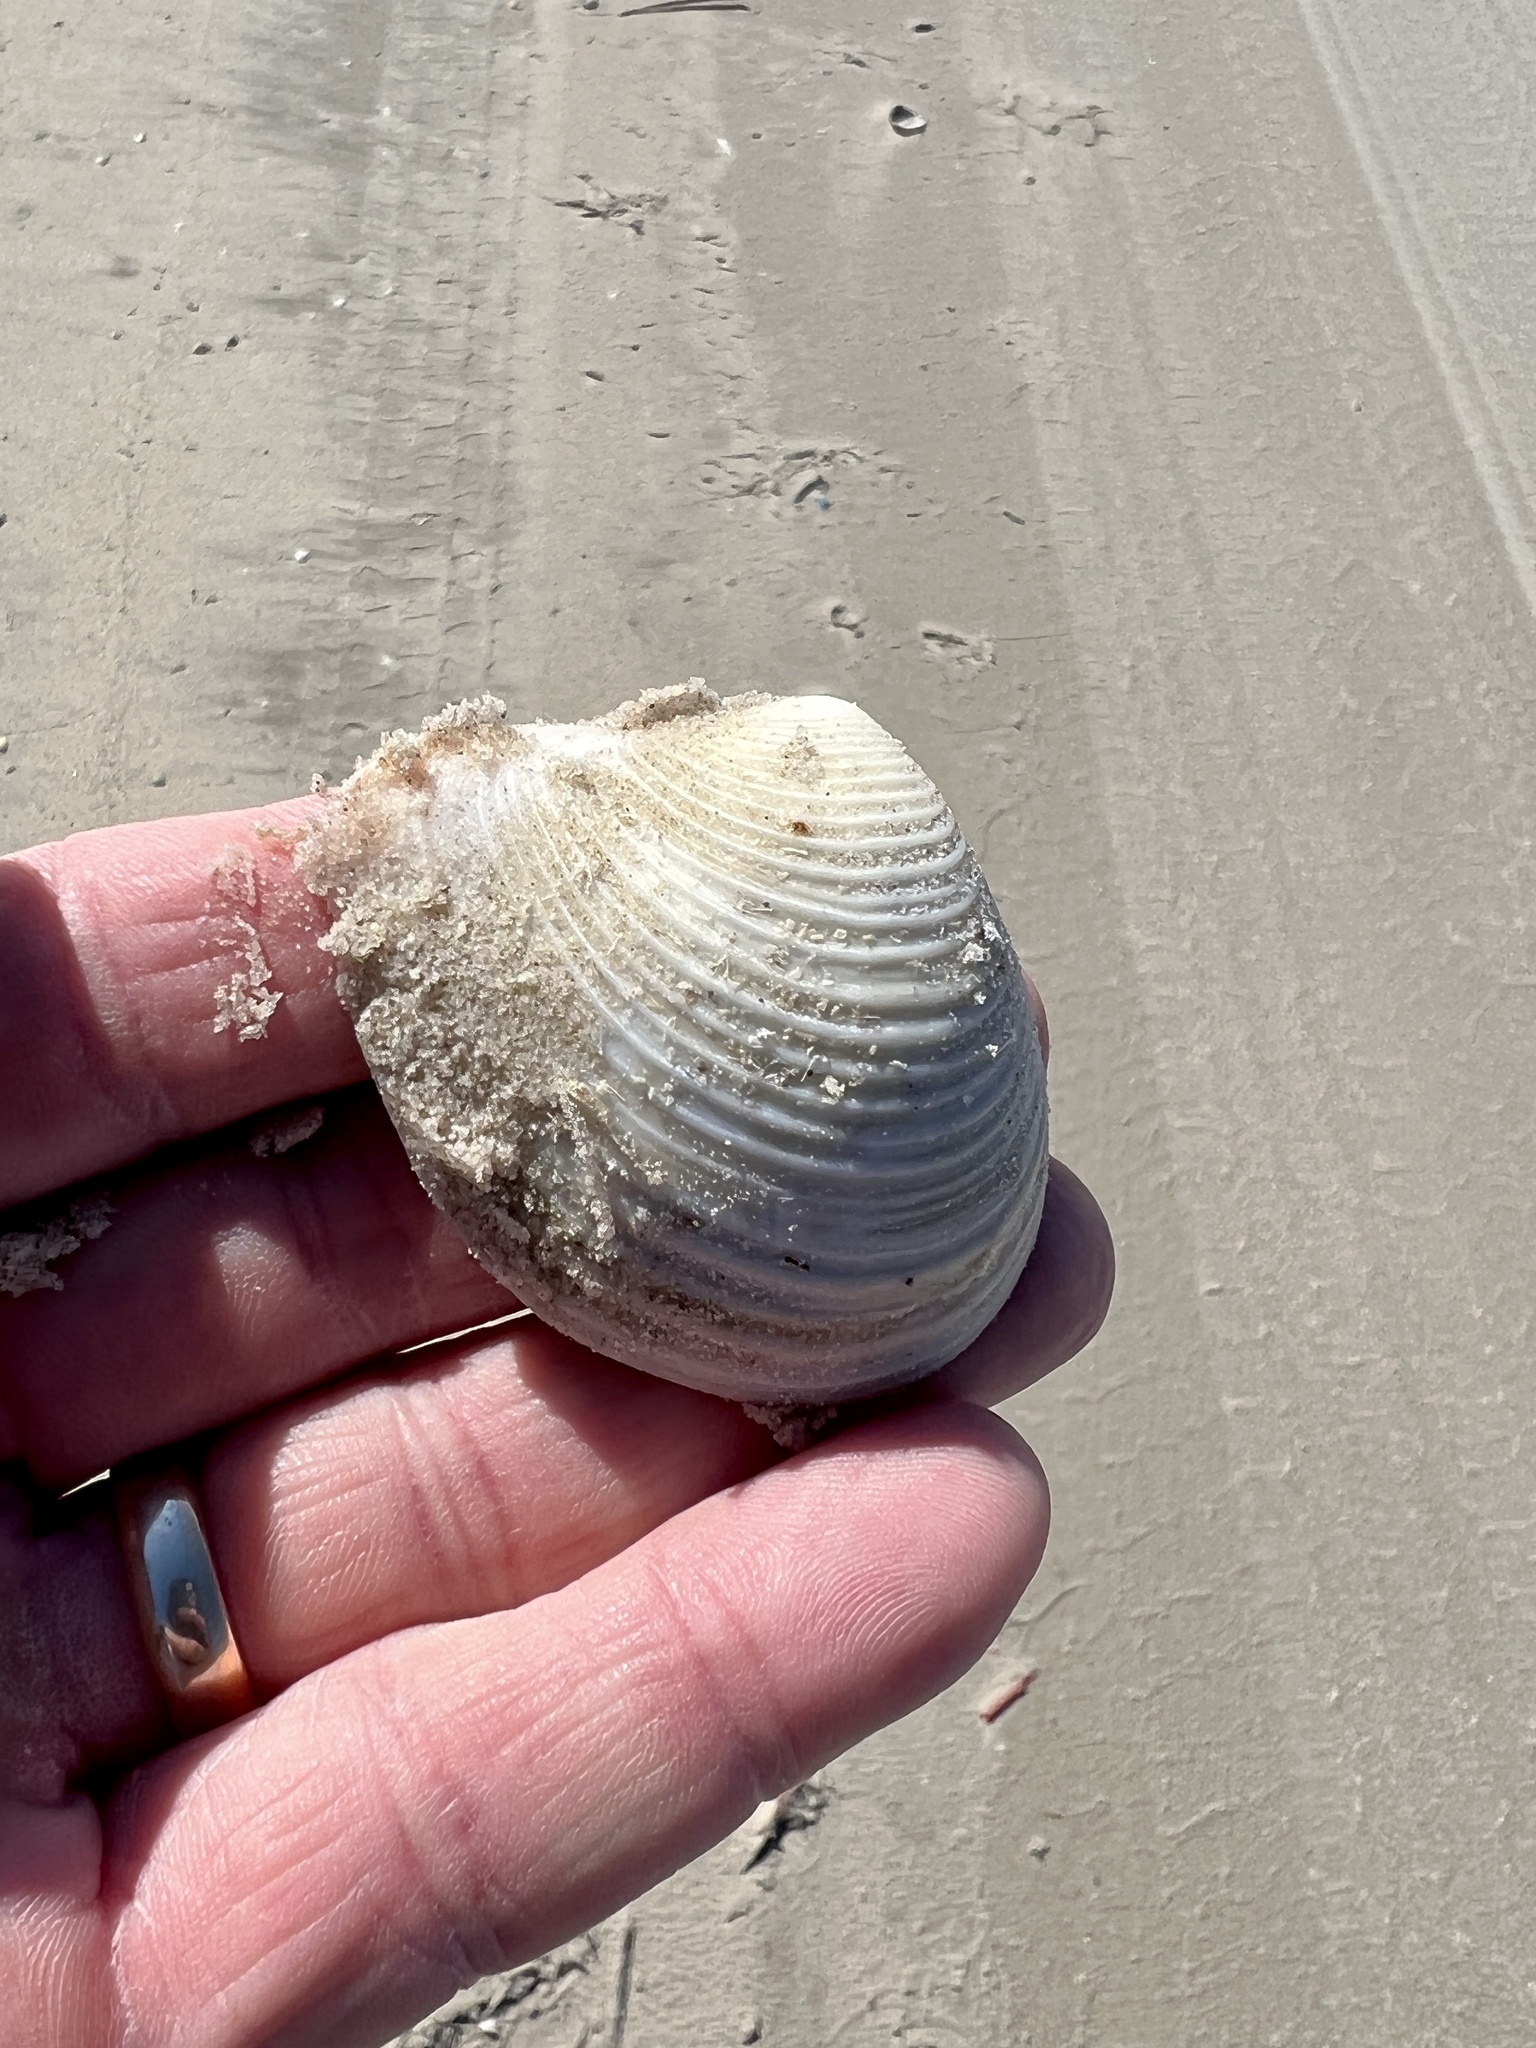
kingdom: Animalia
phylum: Mollusca
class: Bivalvia
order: Venerida
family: Anatinellidae
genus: Raeta
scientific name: Raeta plicatella
